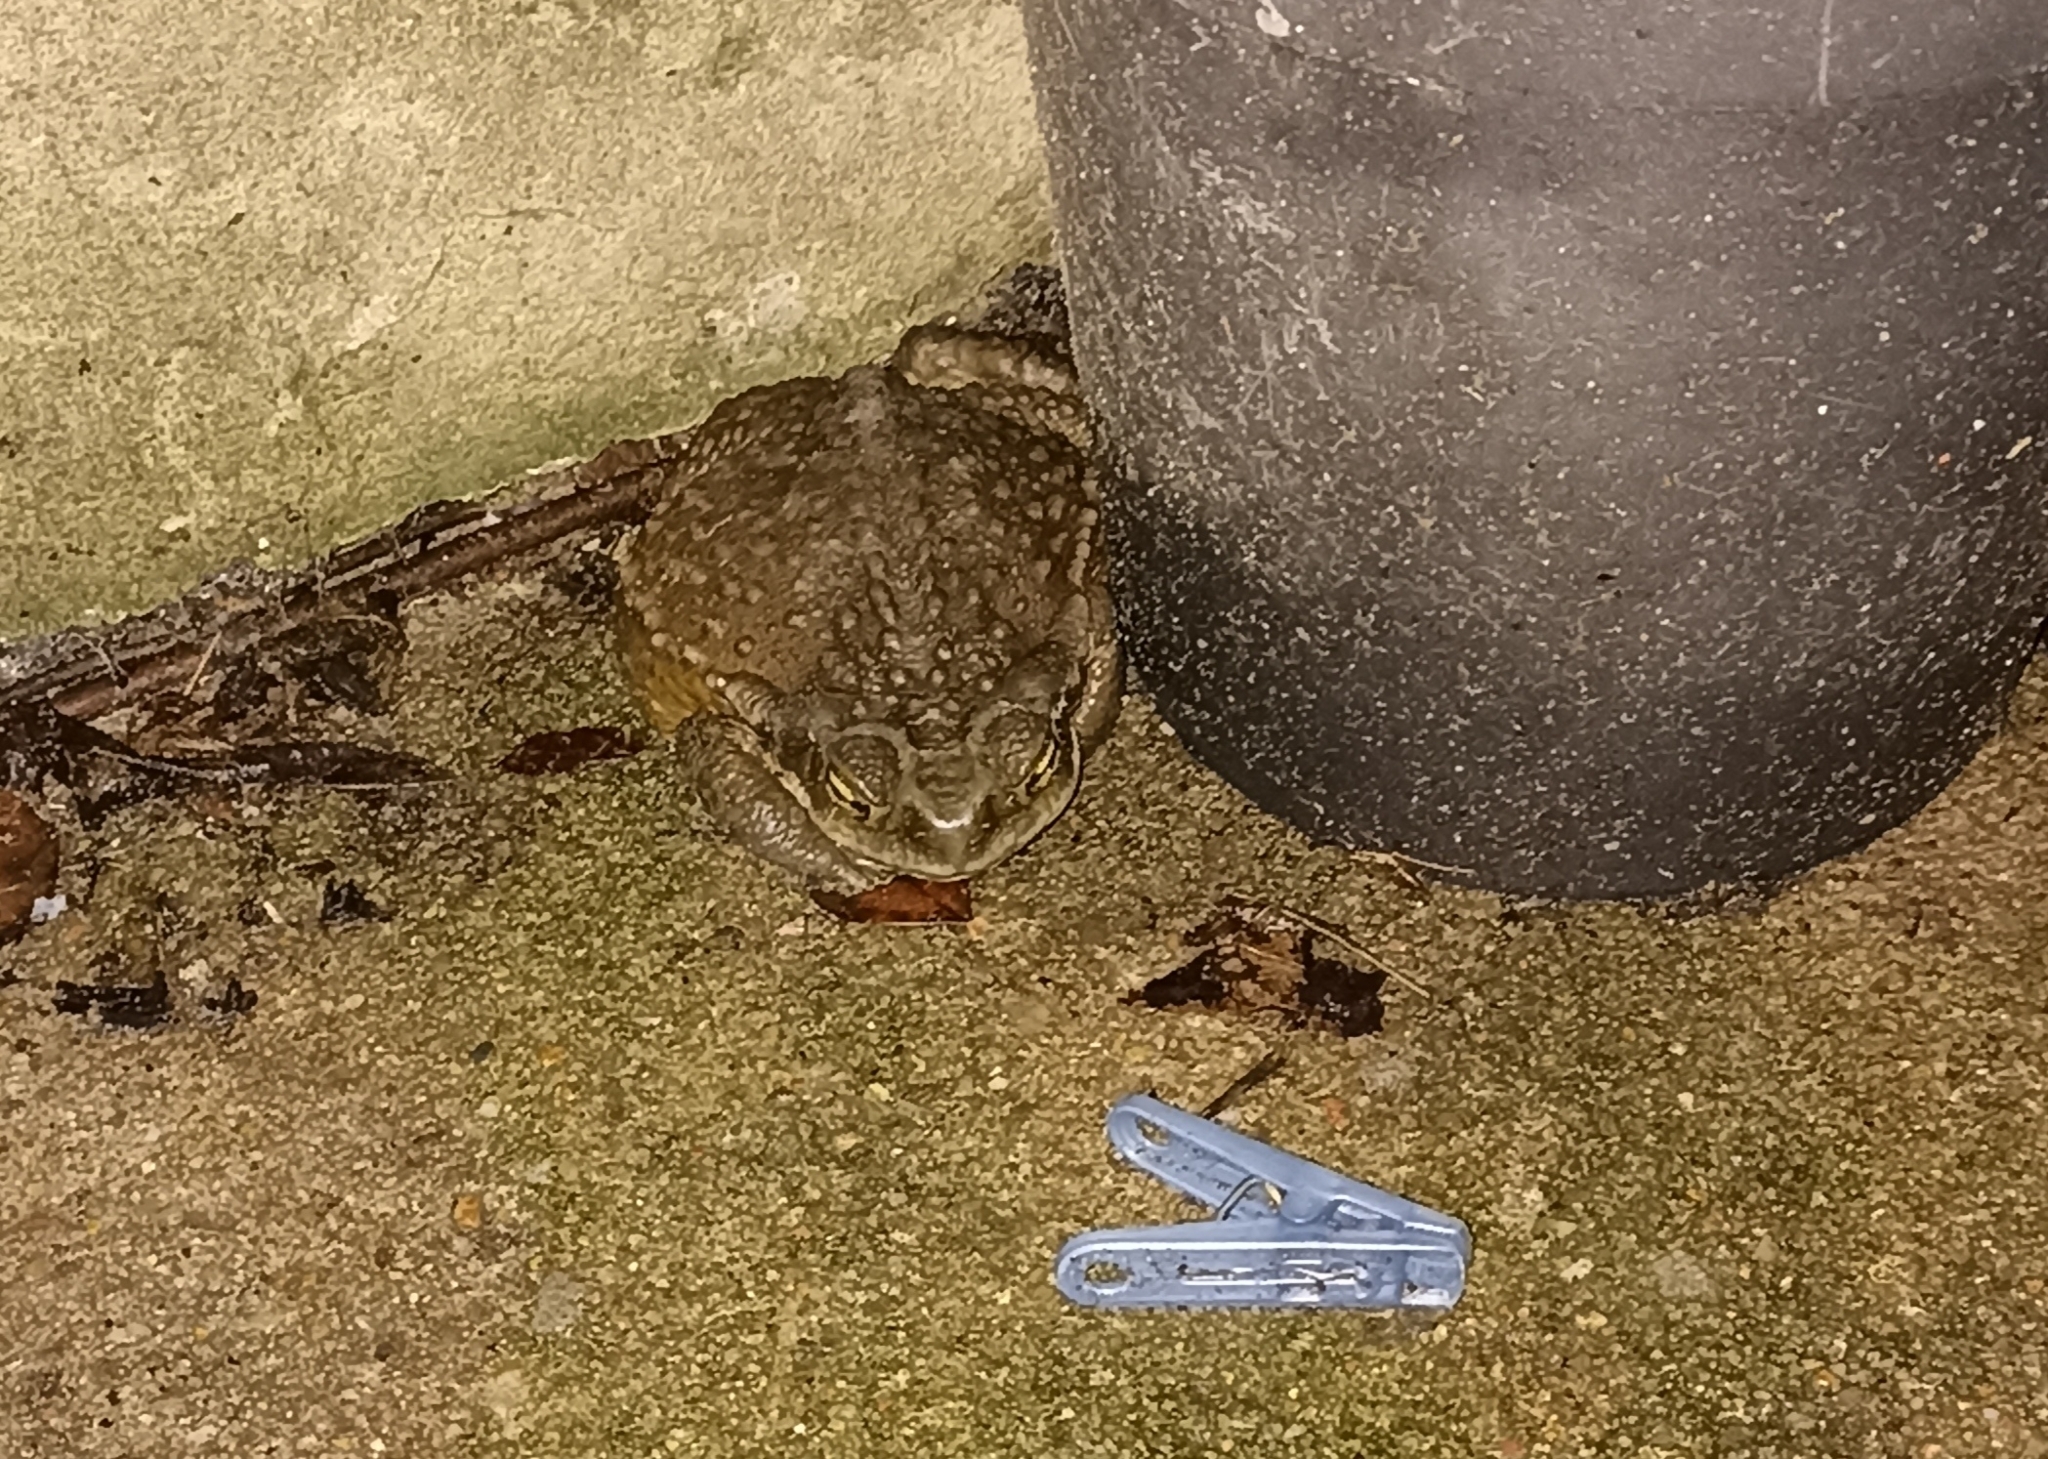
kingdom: Animalia
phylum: Chordata
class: Amphibia
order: Anura
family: Bufonidae
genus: Rhinella
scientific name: Rhinella arenarum
